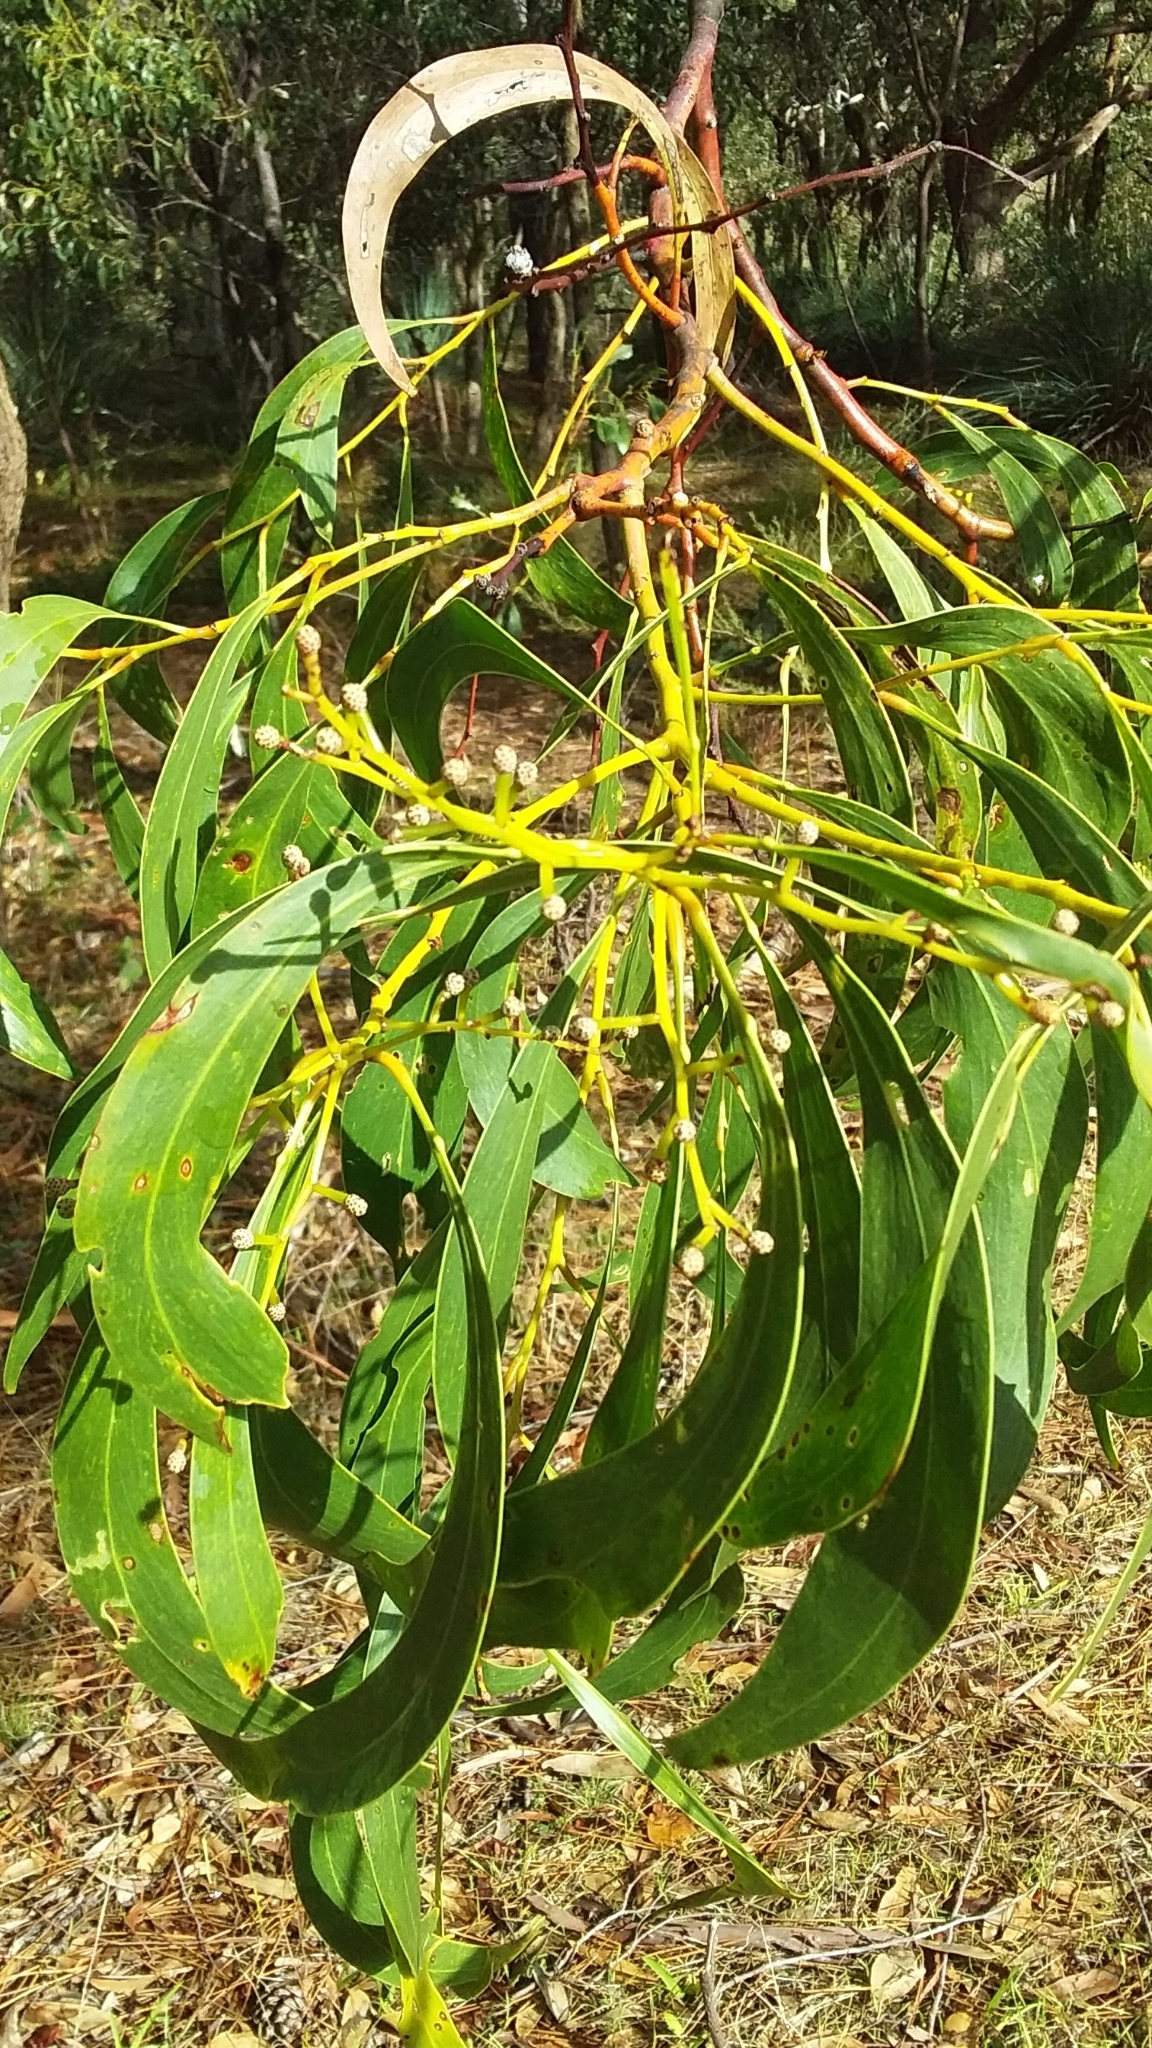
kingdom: Plantae
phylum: Tracheophyta
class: Magnoliopsida
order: Fabales
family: Fabaceae
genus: Acacia
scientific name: Acacia pycnantha
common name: Golden wattle
